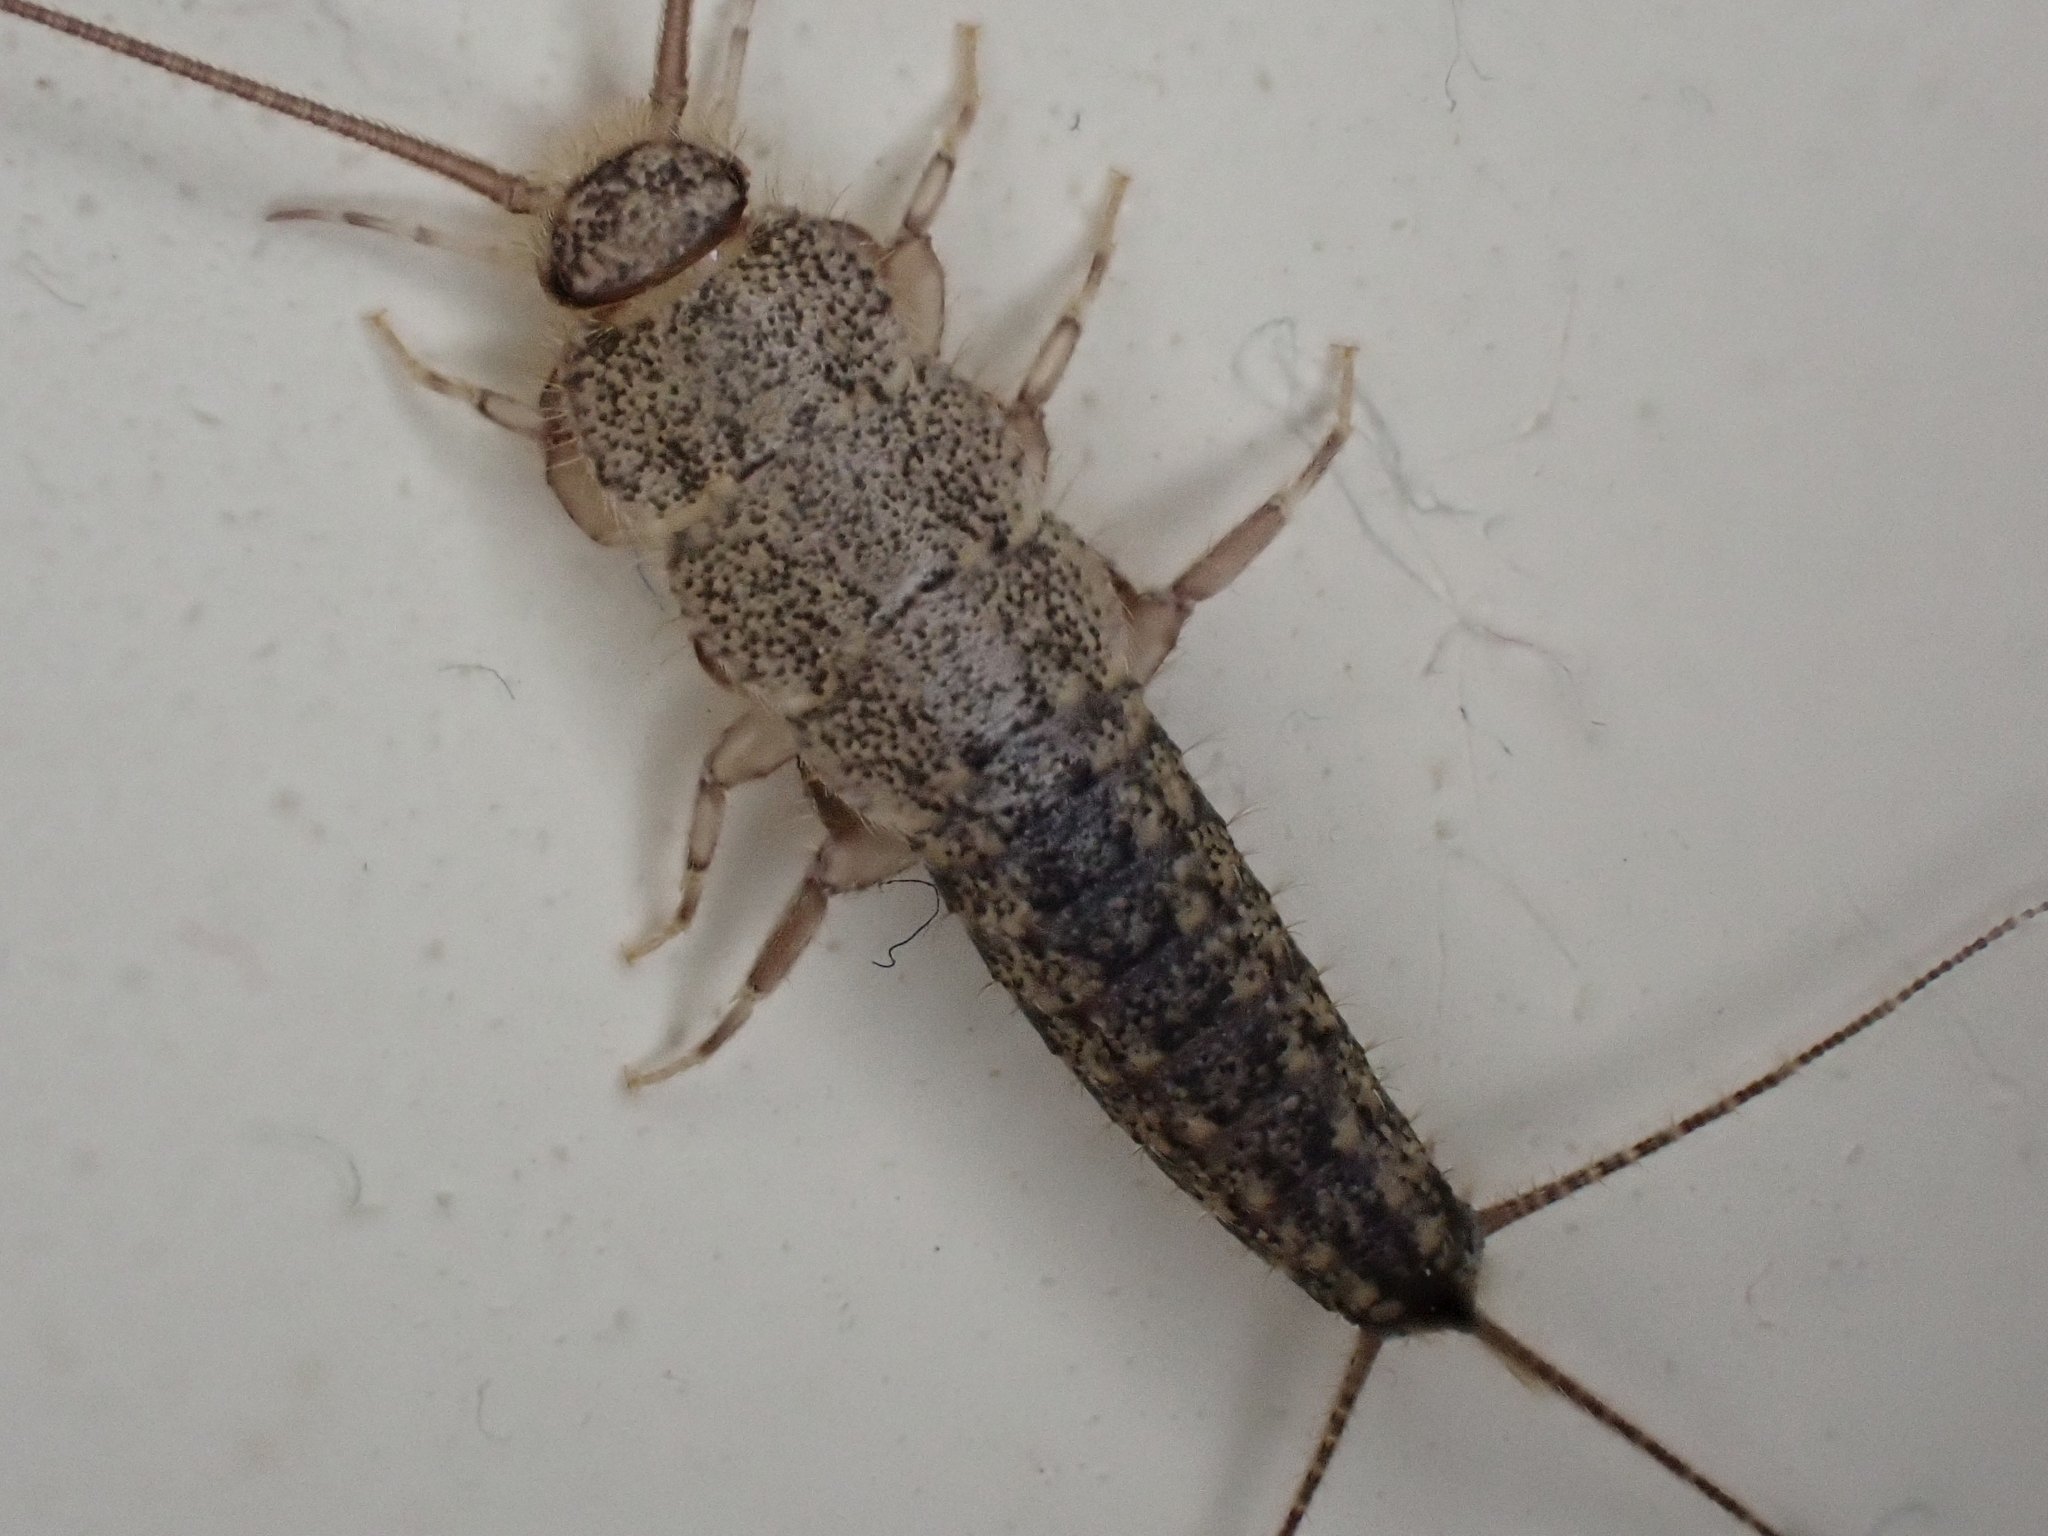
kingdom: Animalia
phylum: Arthropoda
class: Insecta
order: Zygentoma
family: Lepismatidae
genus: Ctenolepisma
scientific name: Ctenolepisma lineata
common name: Four-lined silverfish
